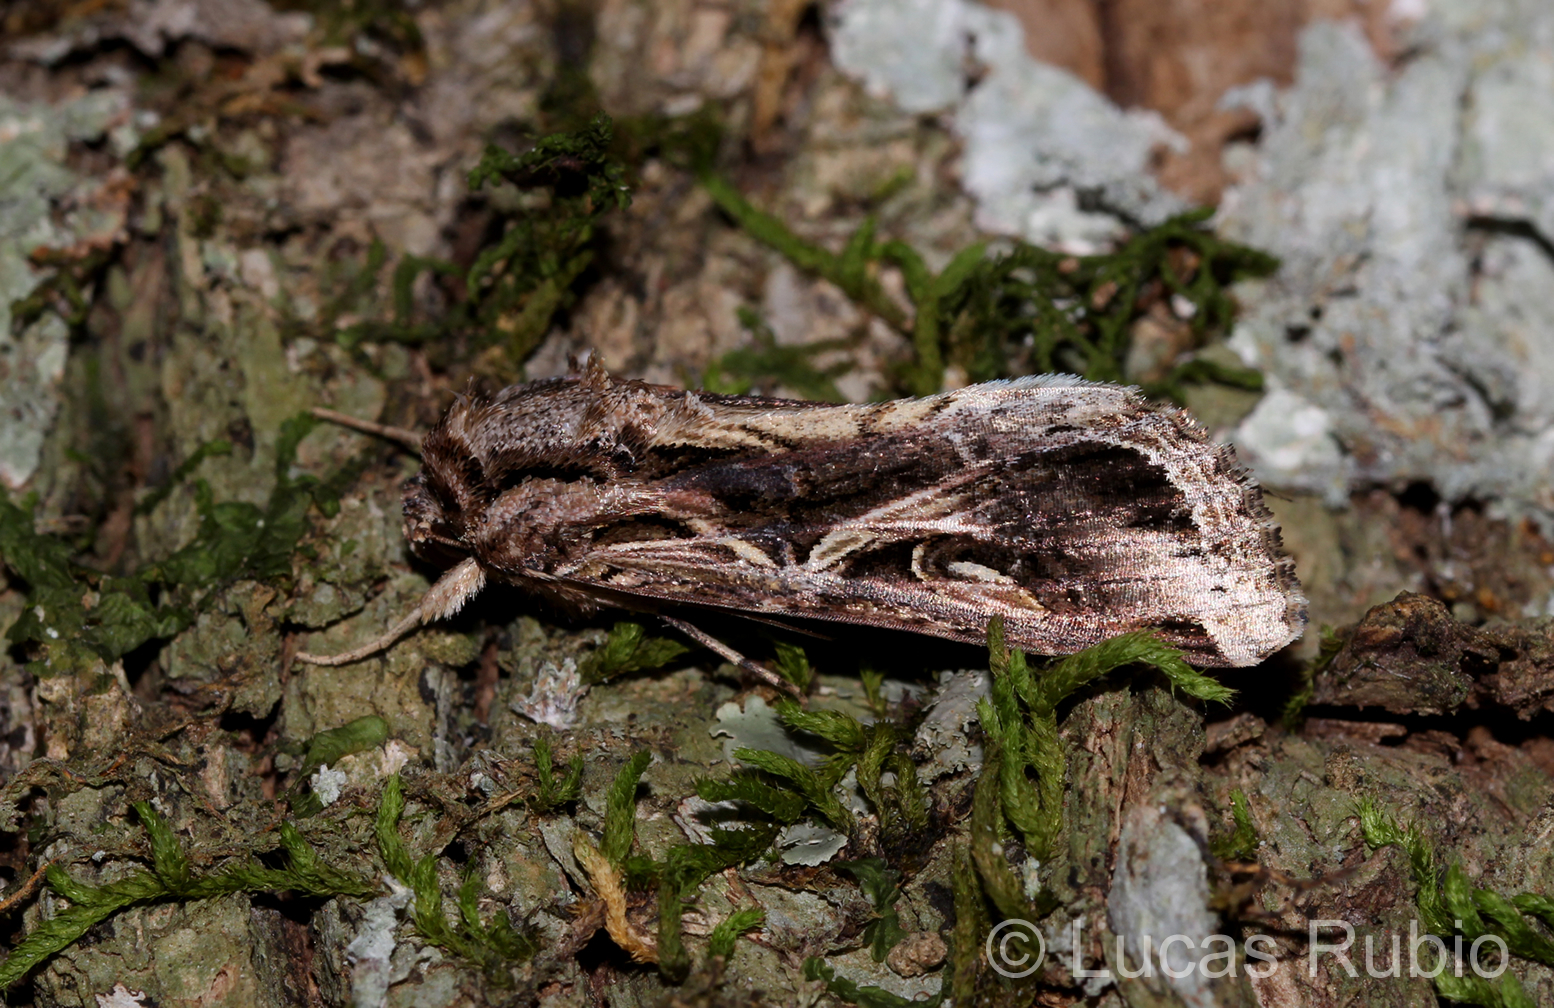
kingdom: Animalia
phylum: Arthropoda
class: Insecta
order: Lepidoptera
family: Noctuidae
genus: Spodoptera
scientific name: Spodoptera dolichos
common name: Sweetpotato armyworm
